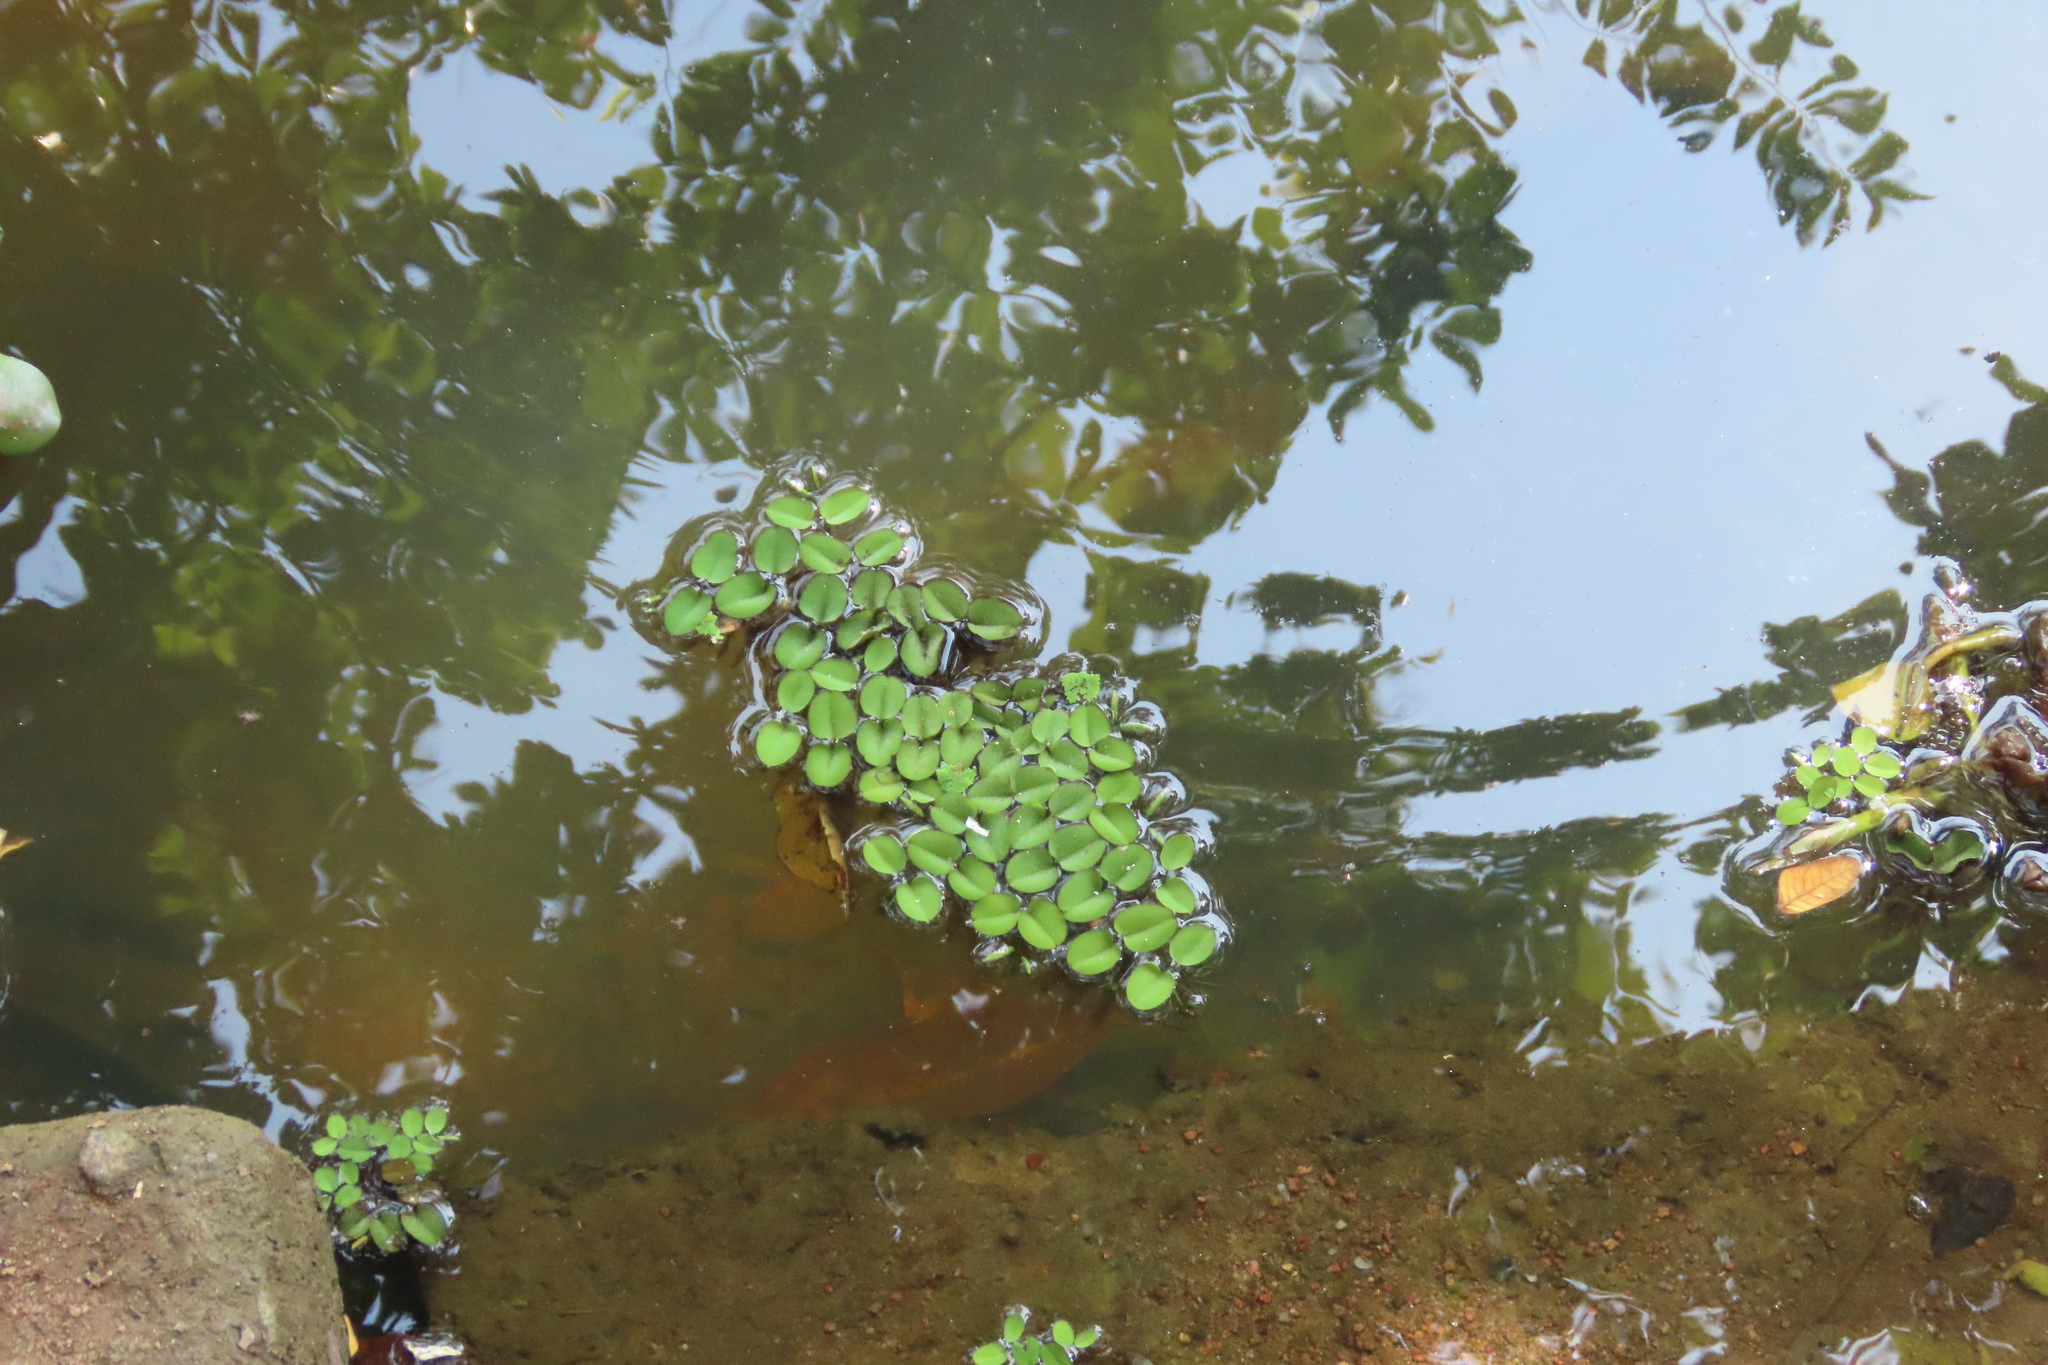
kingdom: Plantae
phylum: Tracheophyta
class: Polypodiopsida
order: Salviniales
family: Salviniaceae
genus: Salvinia
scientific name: Salvinia molesta
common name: Kariba weed
